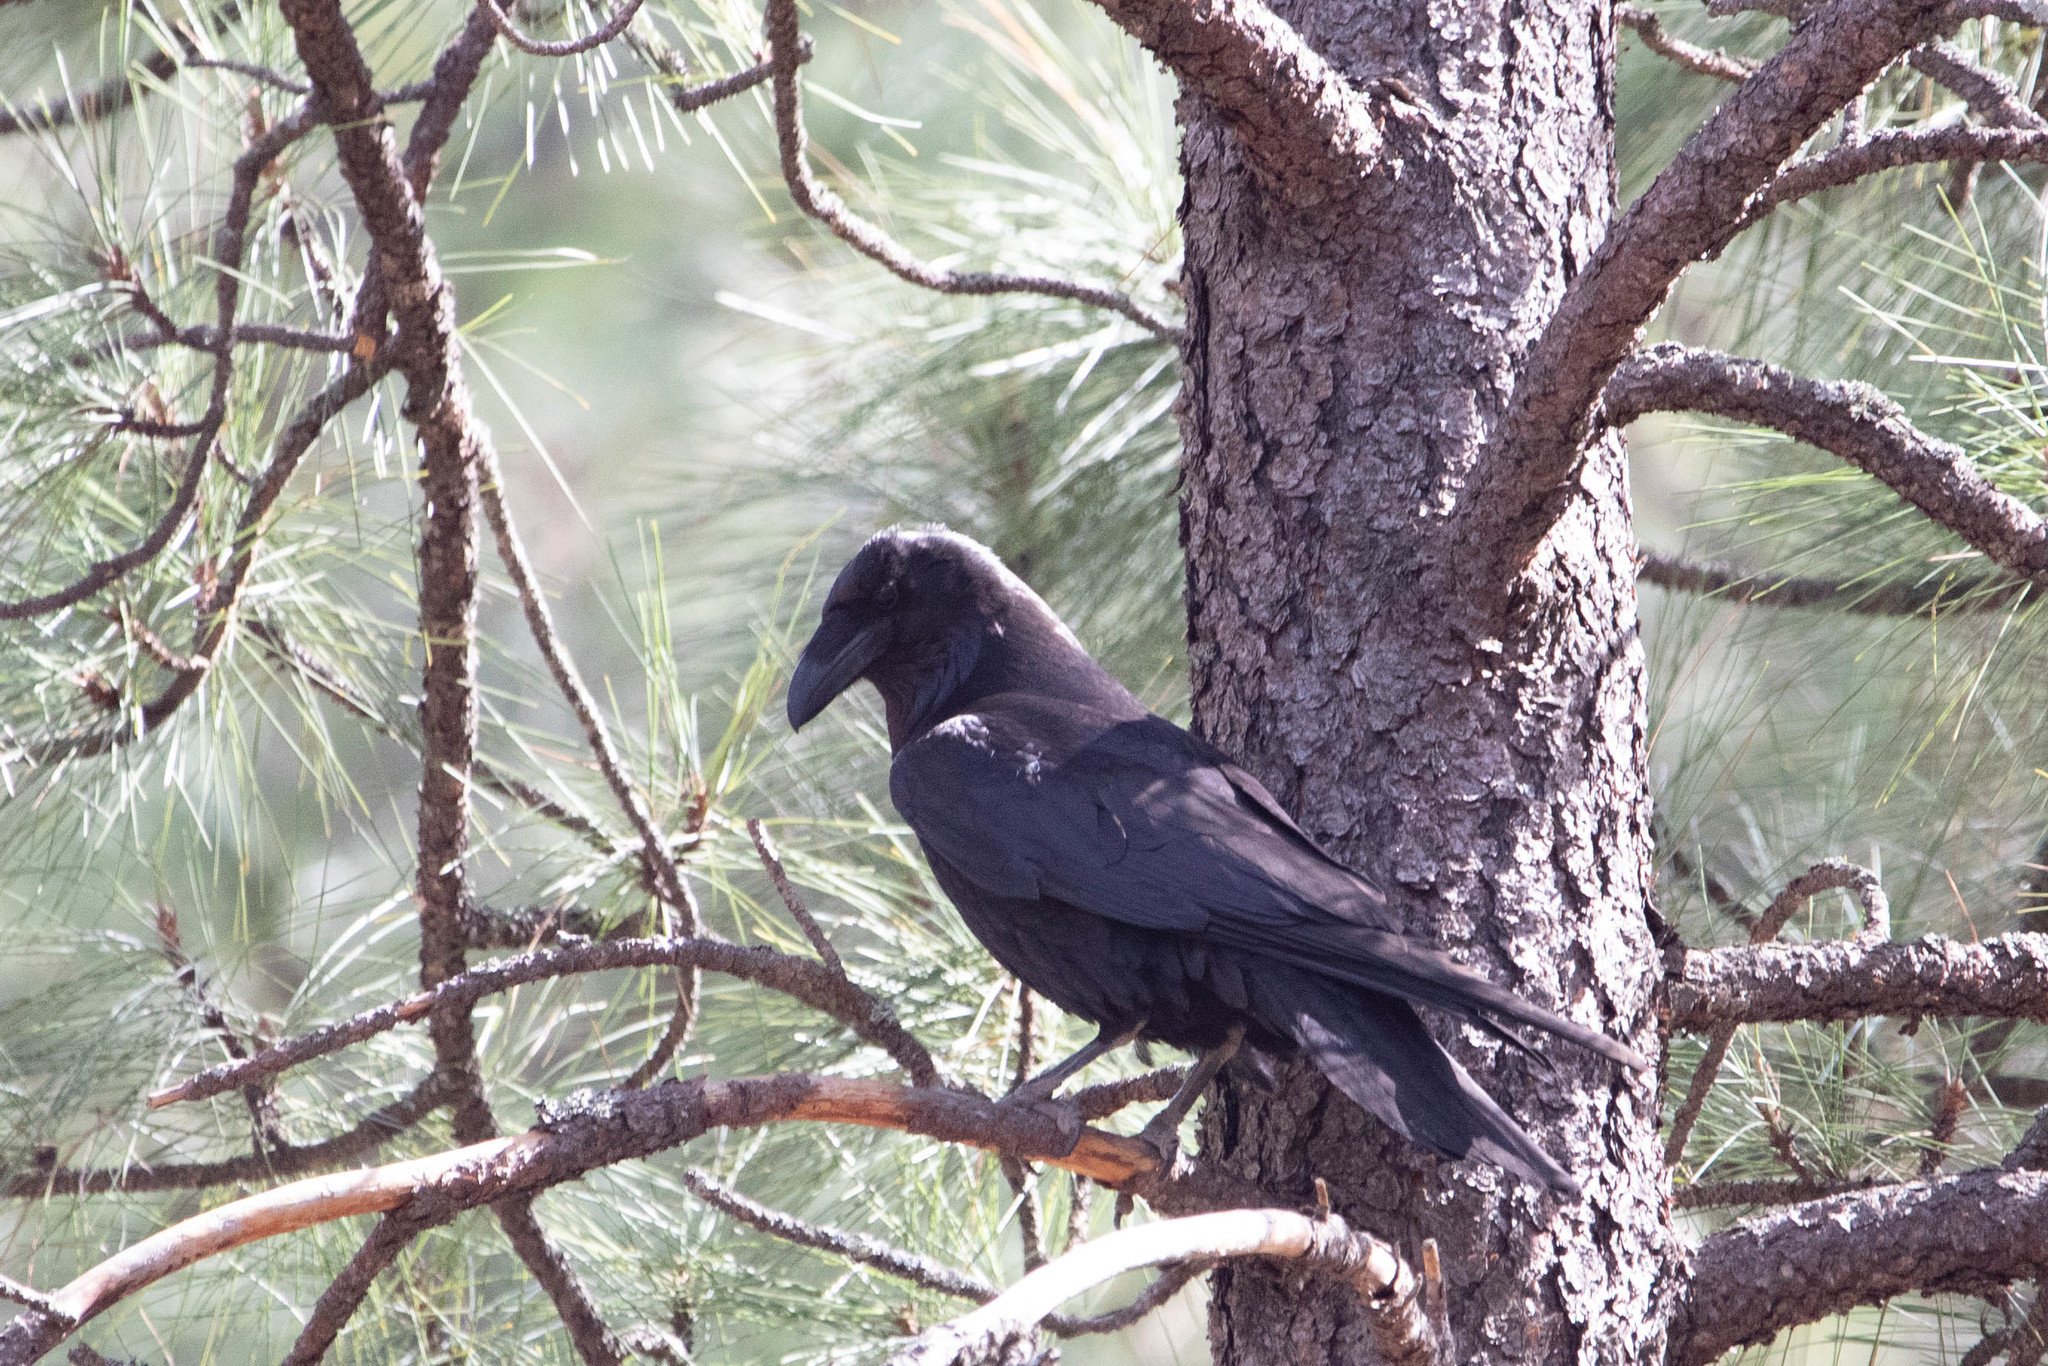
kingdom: Animalia
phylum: Chordata
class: Aves
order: Passeriformes
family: Corvidae
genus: Corvus
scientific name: Corvus corax
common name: Common raven
